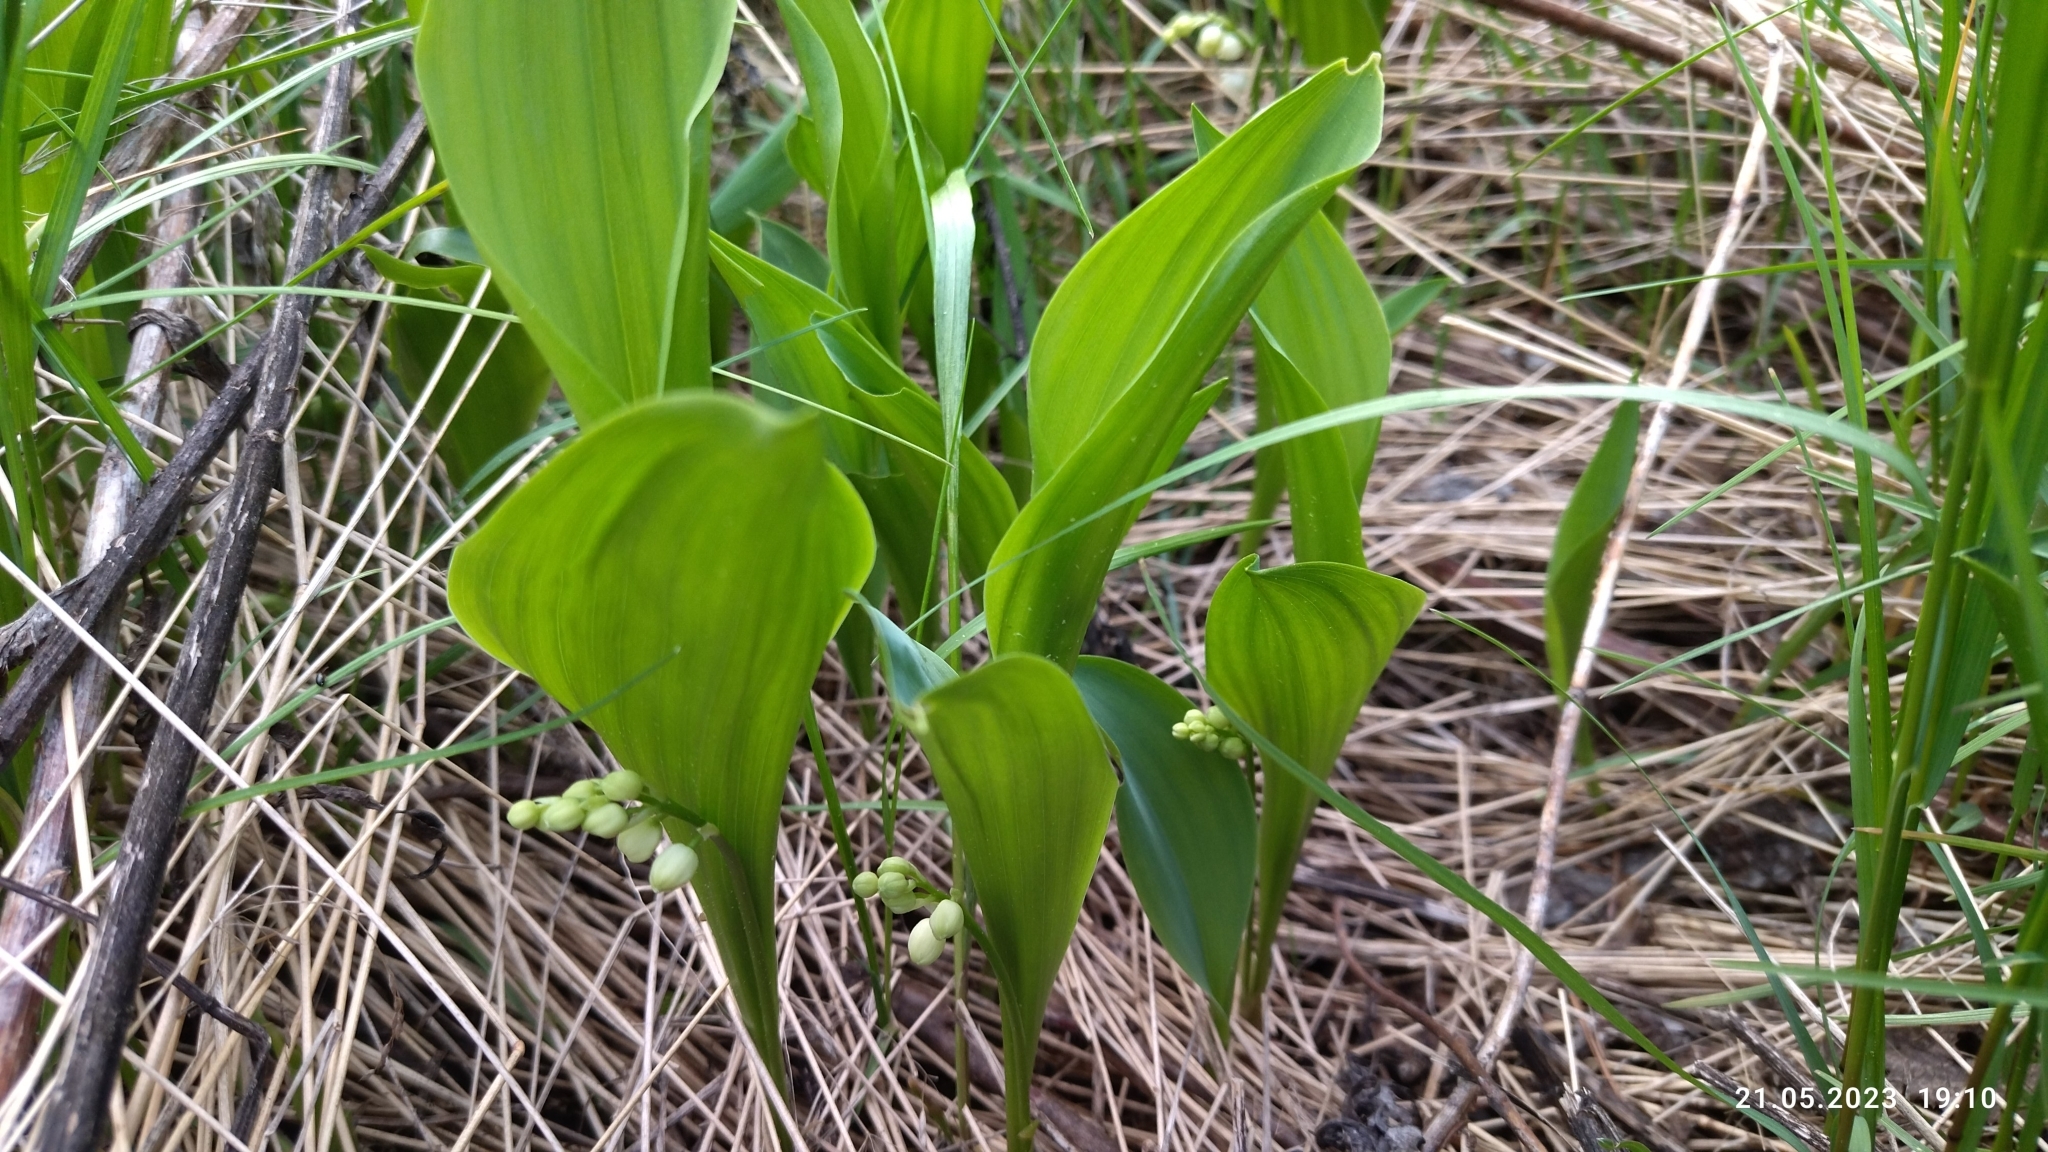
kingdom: Plantae
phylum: Tracheophyta
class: Liliopsida
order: Asparagales
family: Asparagaceae
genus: Convallaria
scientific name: Convallaria majalis
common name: Lily-of-the-valley
